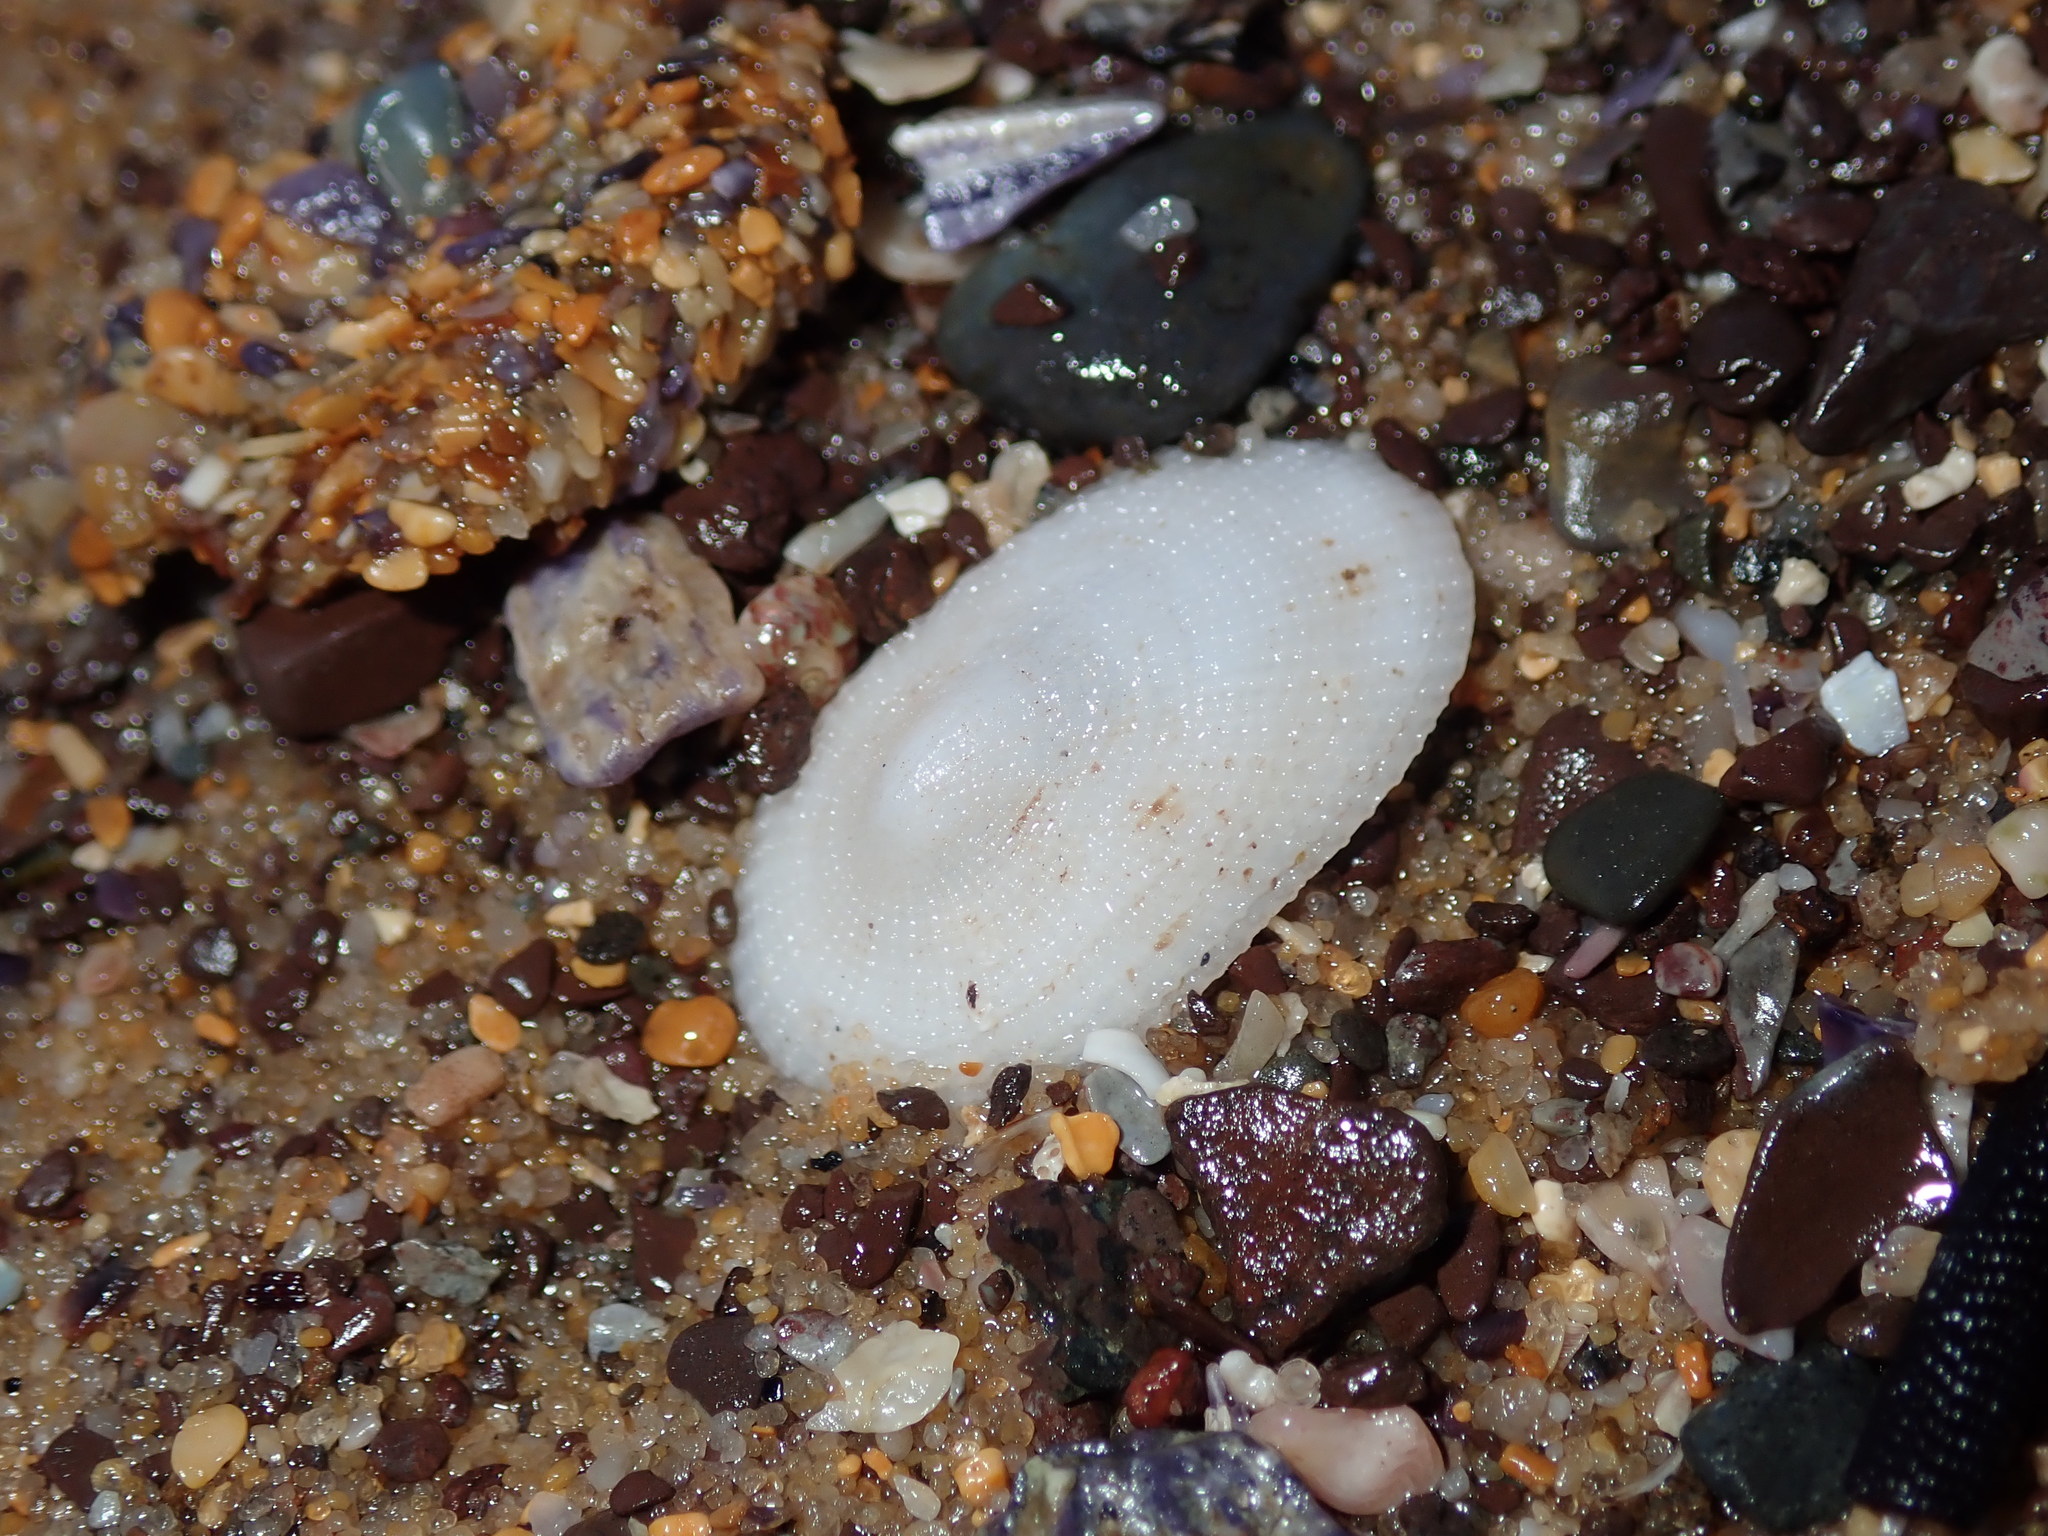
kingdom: Animalia
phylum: Mollusca
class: Gastropoda
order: Lepetellida
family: Fissurellidae
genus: Tugali
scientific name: Tugali parmophoidea
